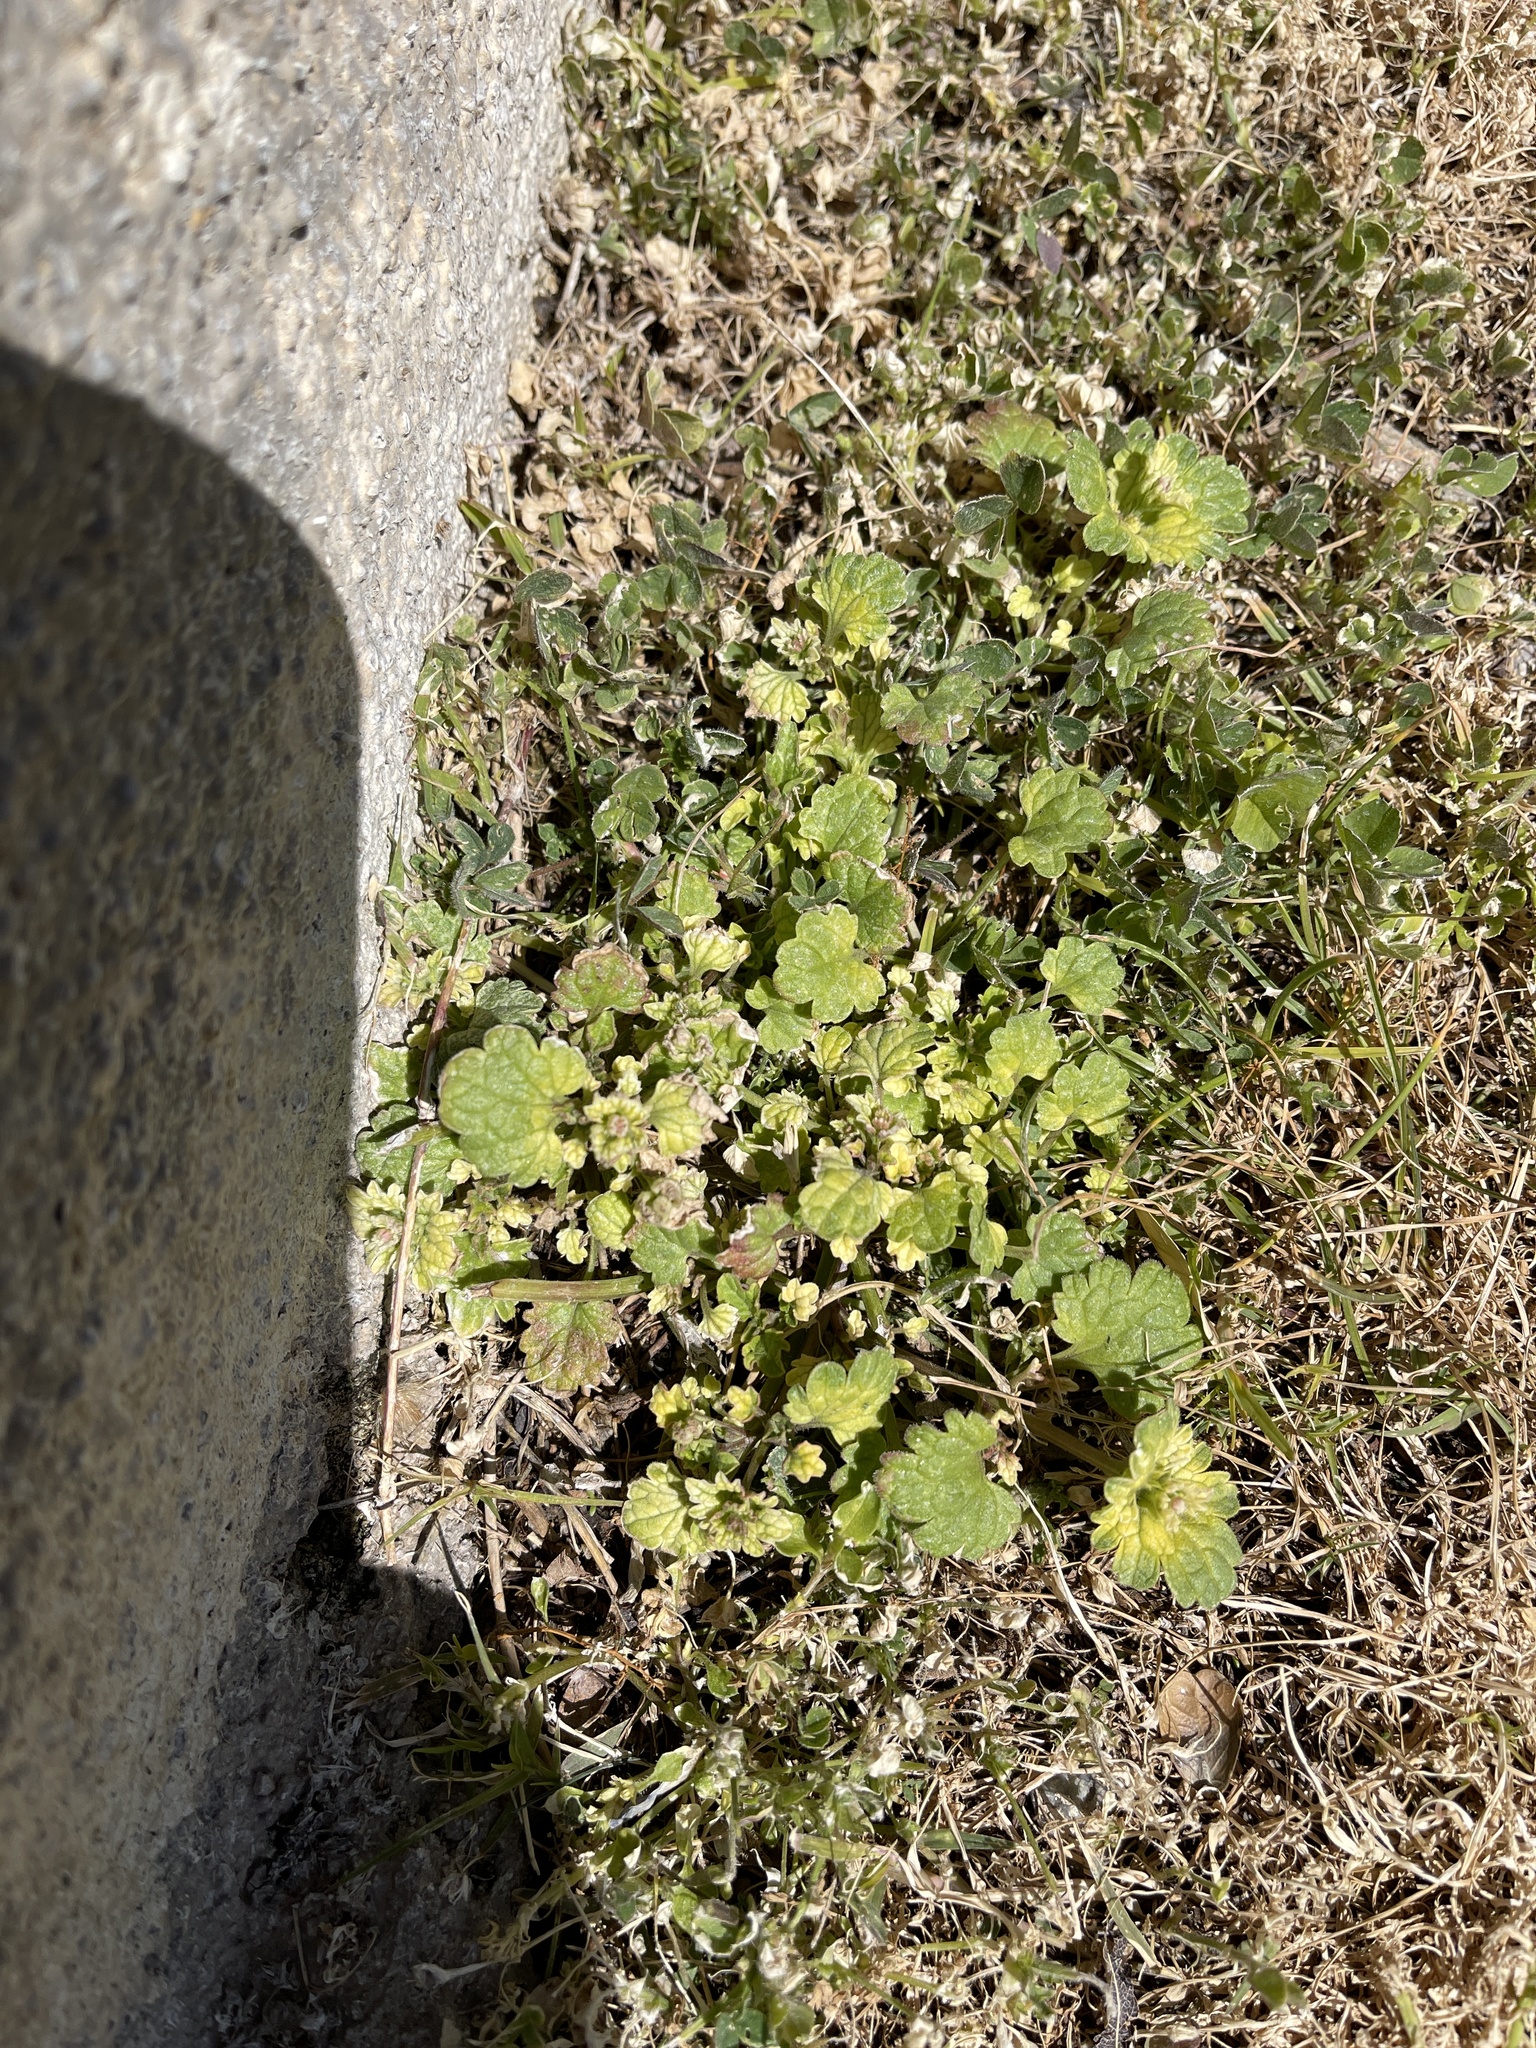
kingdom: Plantae
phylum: Tracheophyta
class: Magnoliopsida
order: Malvales
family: Malvaceae
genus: Malva
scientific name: Malva parviflora
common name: Least mallow
